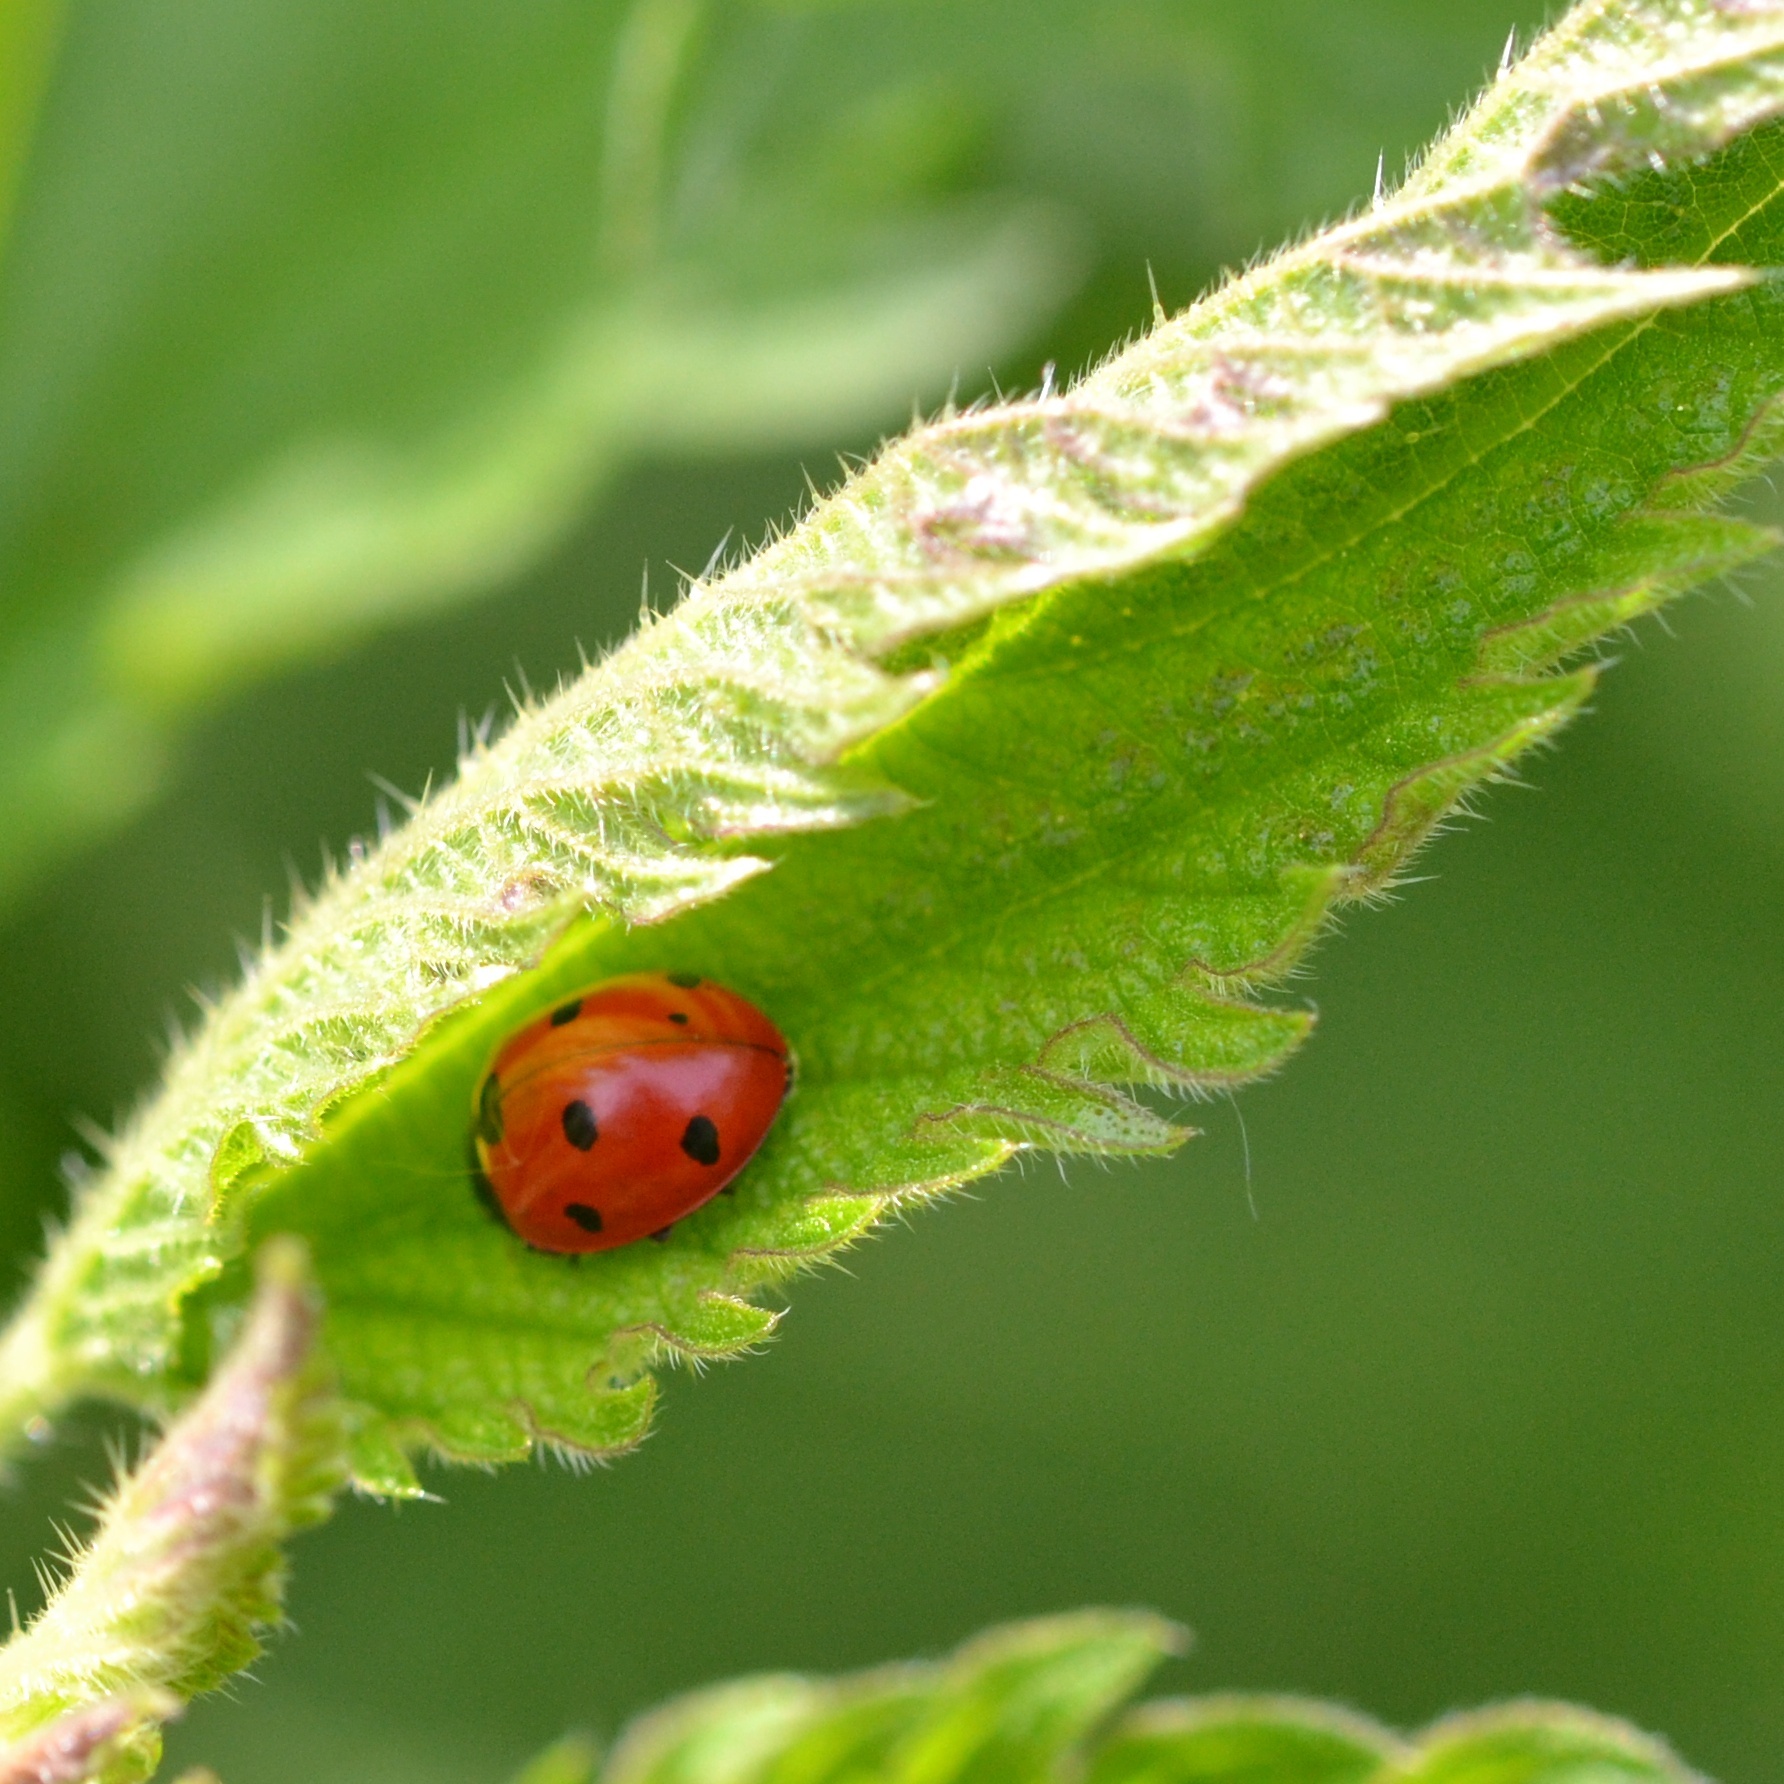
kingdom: Animalia
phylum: Arthropoda
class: Insecta
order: Coleoptera
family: Coccinellidae
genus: Coccinella
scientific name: Coccinella septempunctata
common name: Sevenspotted lady beetle
